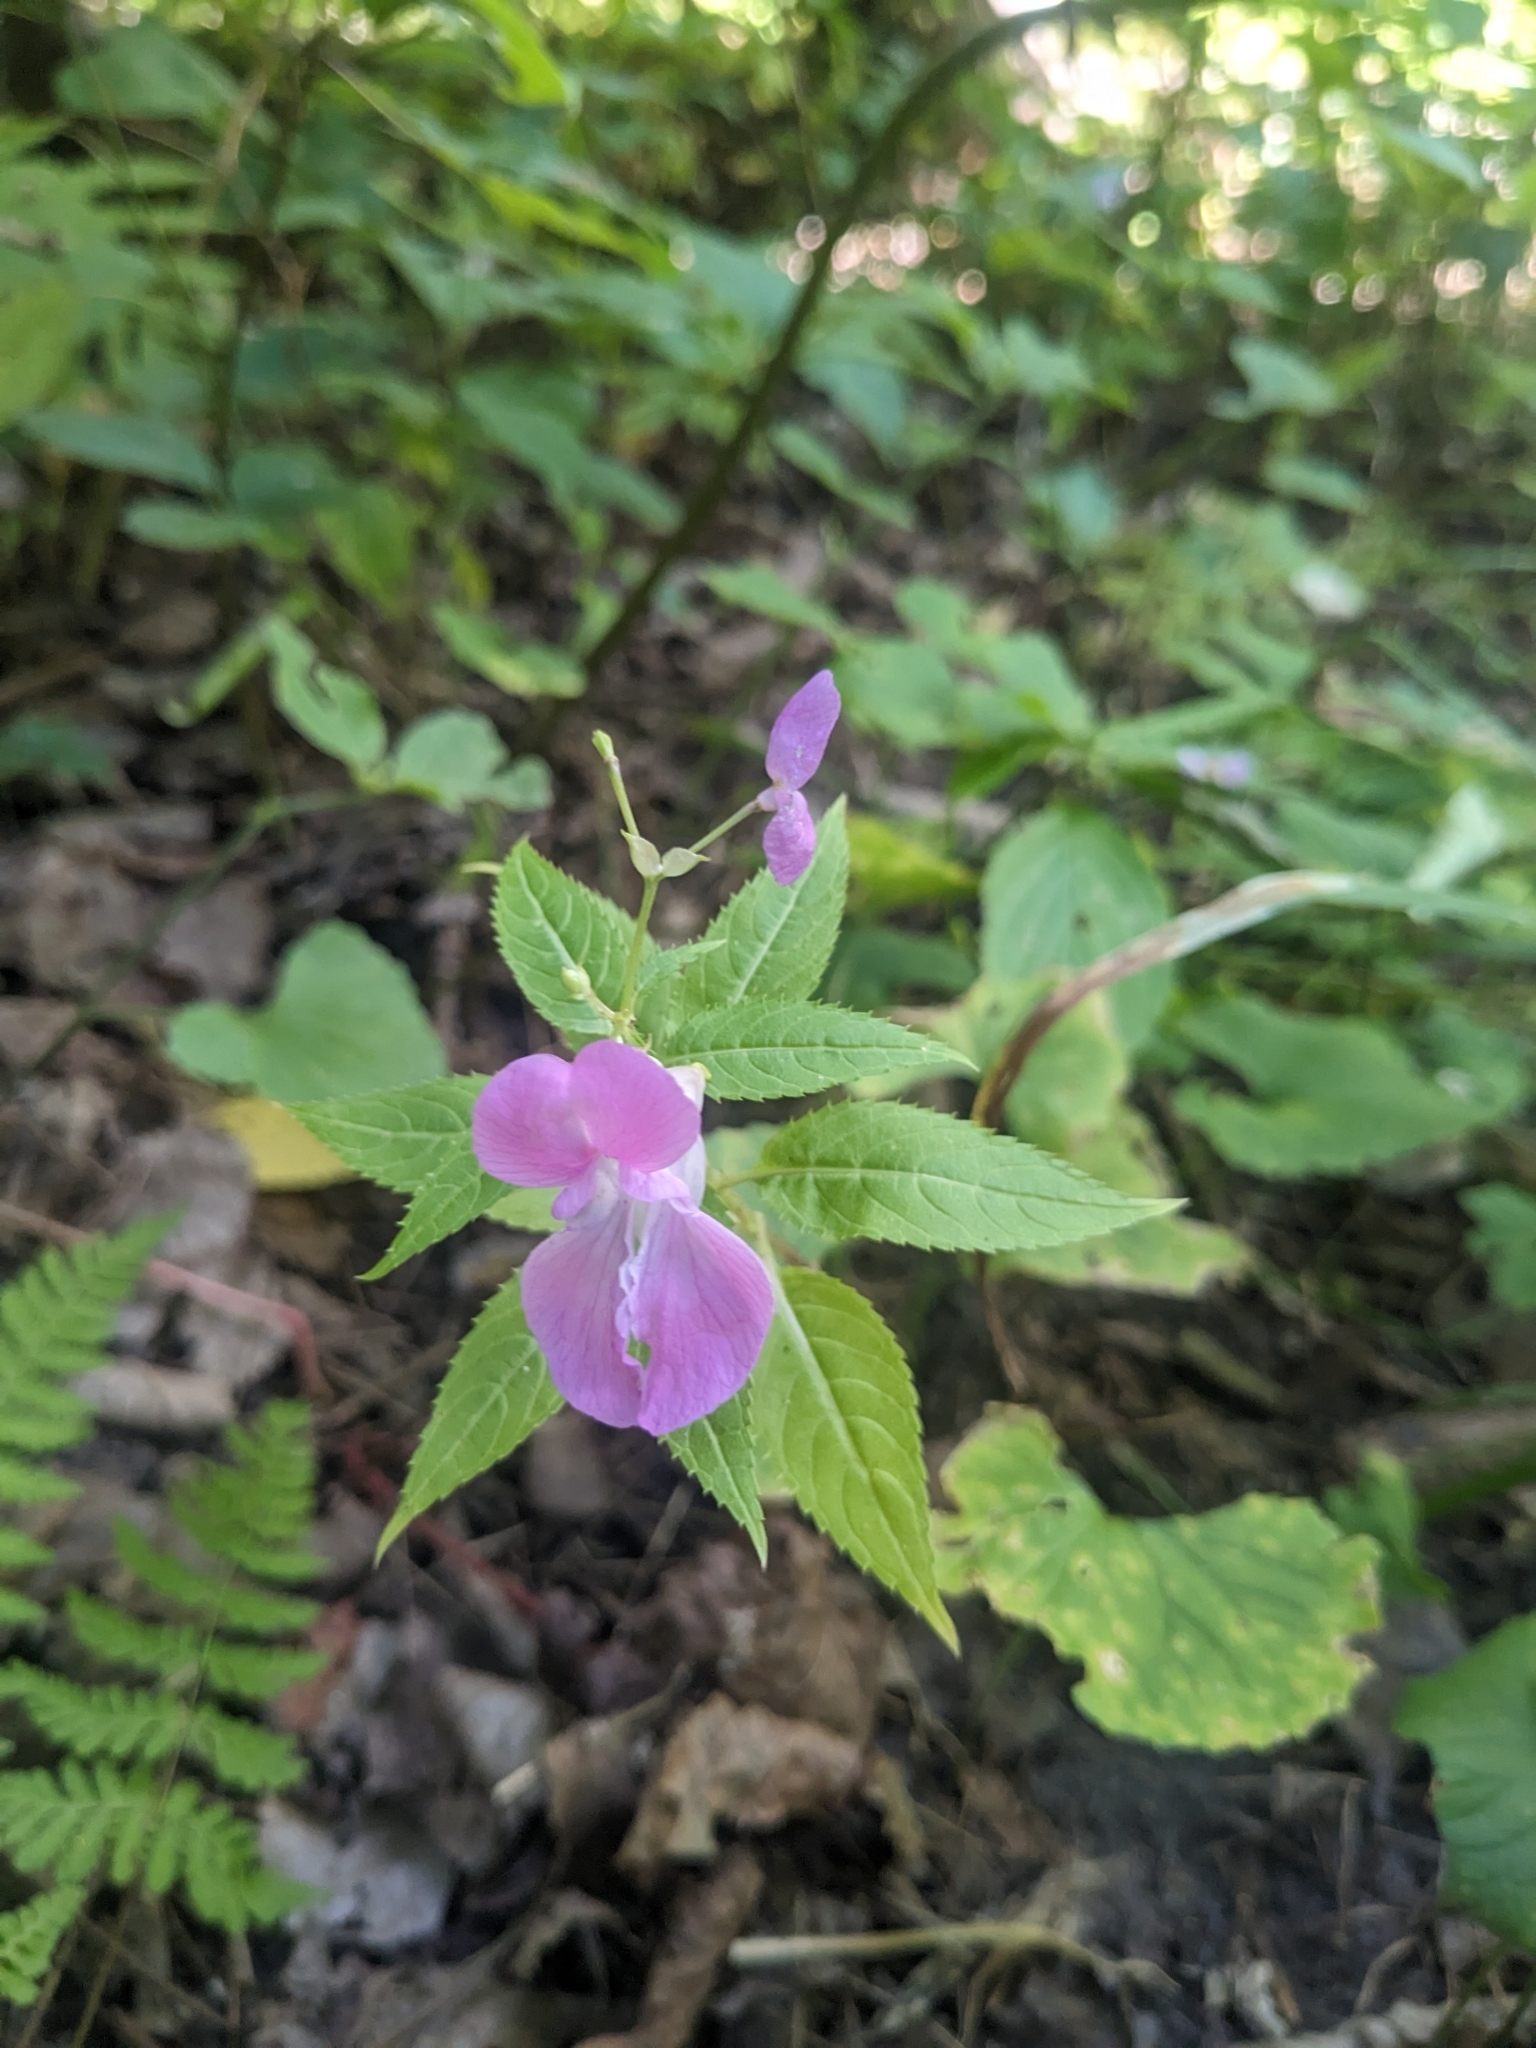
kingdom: Plantae
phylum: Tracheophyta
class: Magnoliopsida
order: Ericales
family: Balsaminaceae
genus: Impatiens
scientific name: Impatiens glandulifera
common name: Himalayan balsam
